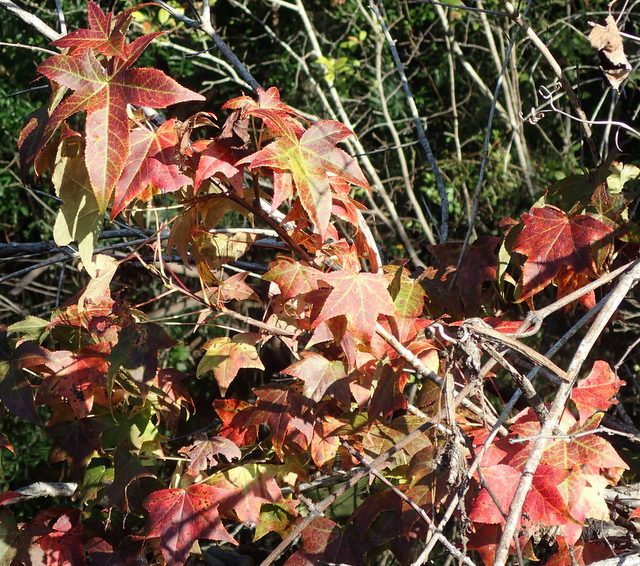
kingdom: Plantae
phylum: Tracheophyta
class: Magnoliopsida
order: Saxifragales
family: Altingiaceae
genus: Liquidambar
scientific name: Liquidambar styraciflua
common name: Sweet gum
